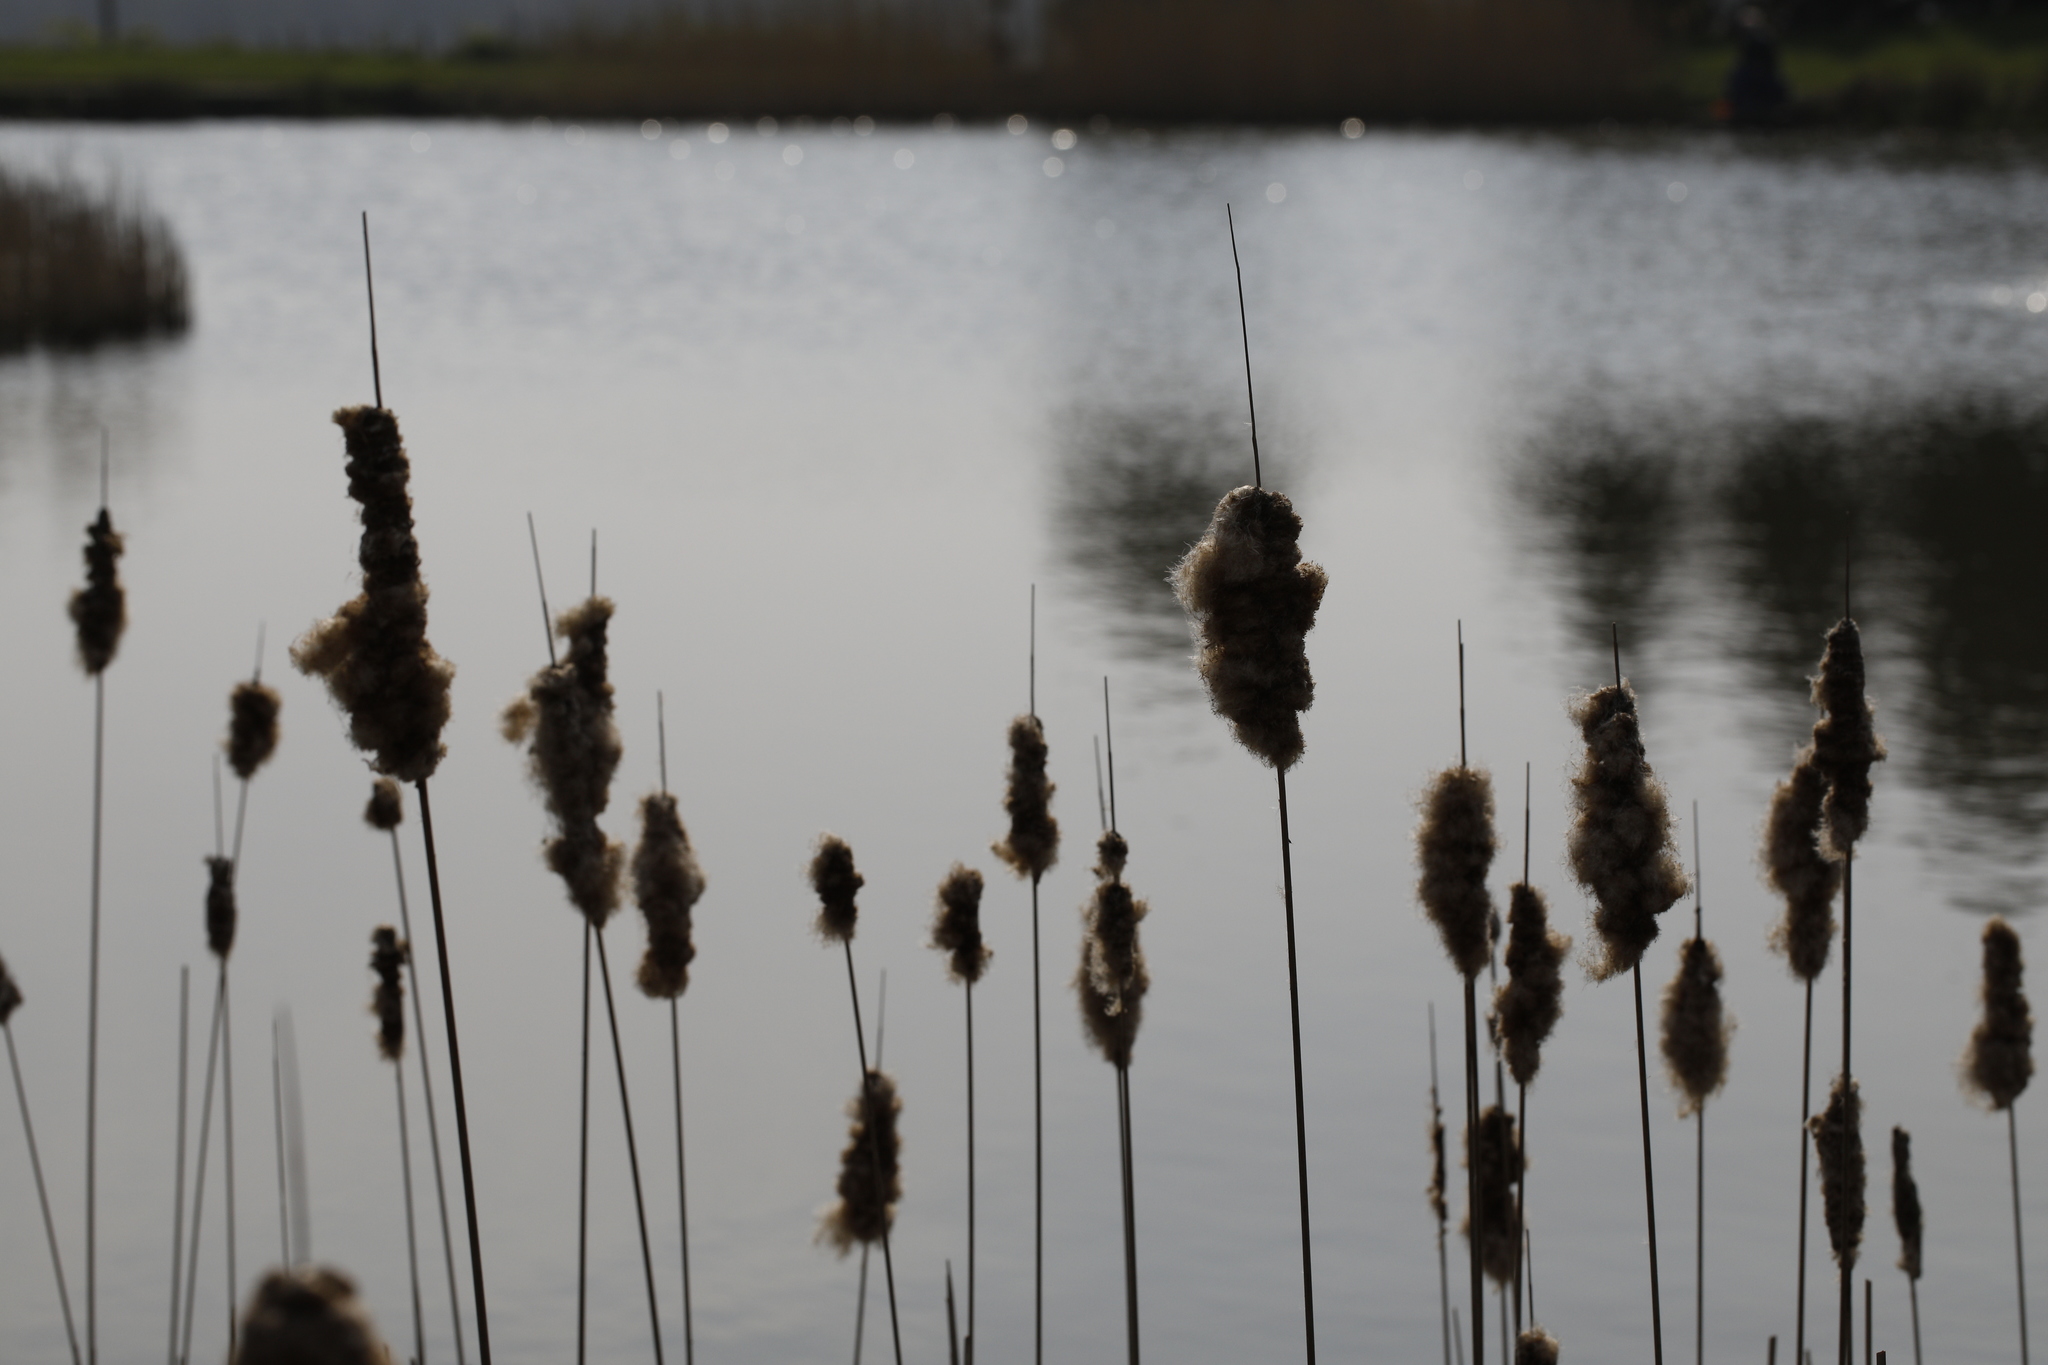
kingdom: Plantae
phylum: Tracheophyta
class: Liliopsida
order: Poales
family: Typhaceae
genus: Typha
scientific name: Typha latifolia
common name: Broadleaf cattail
